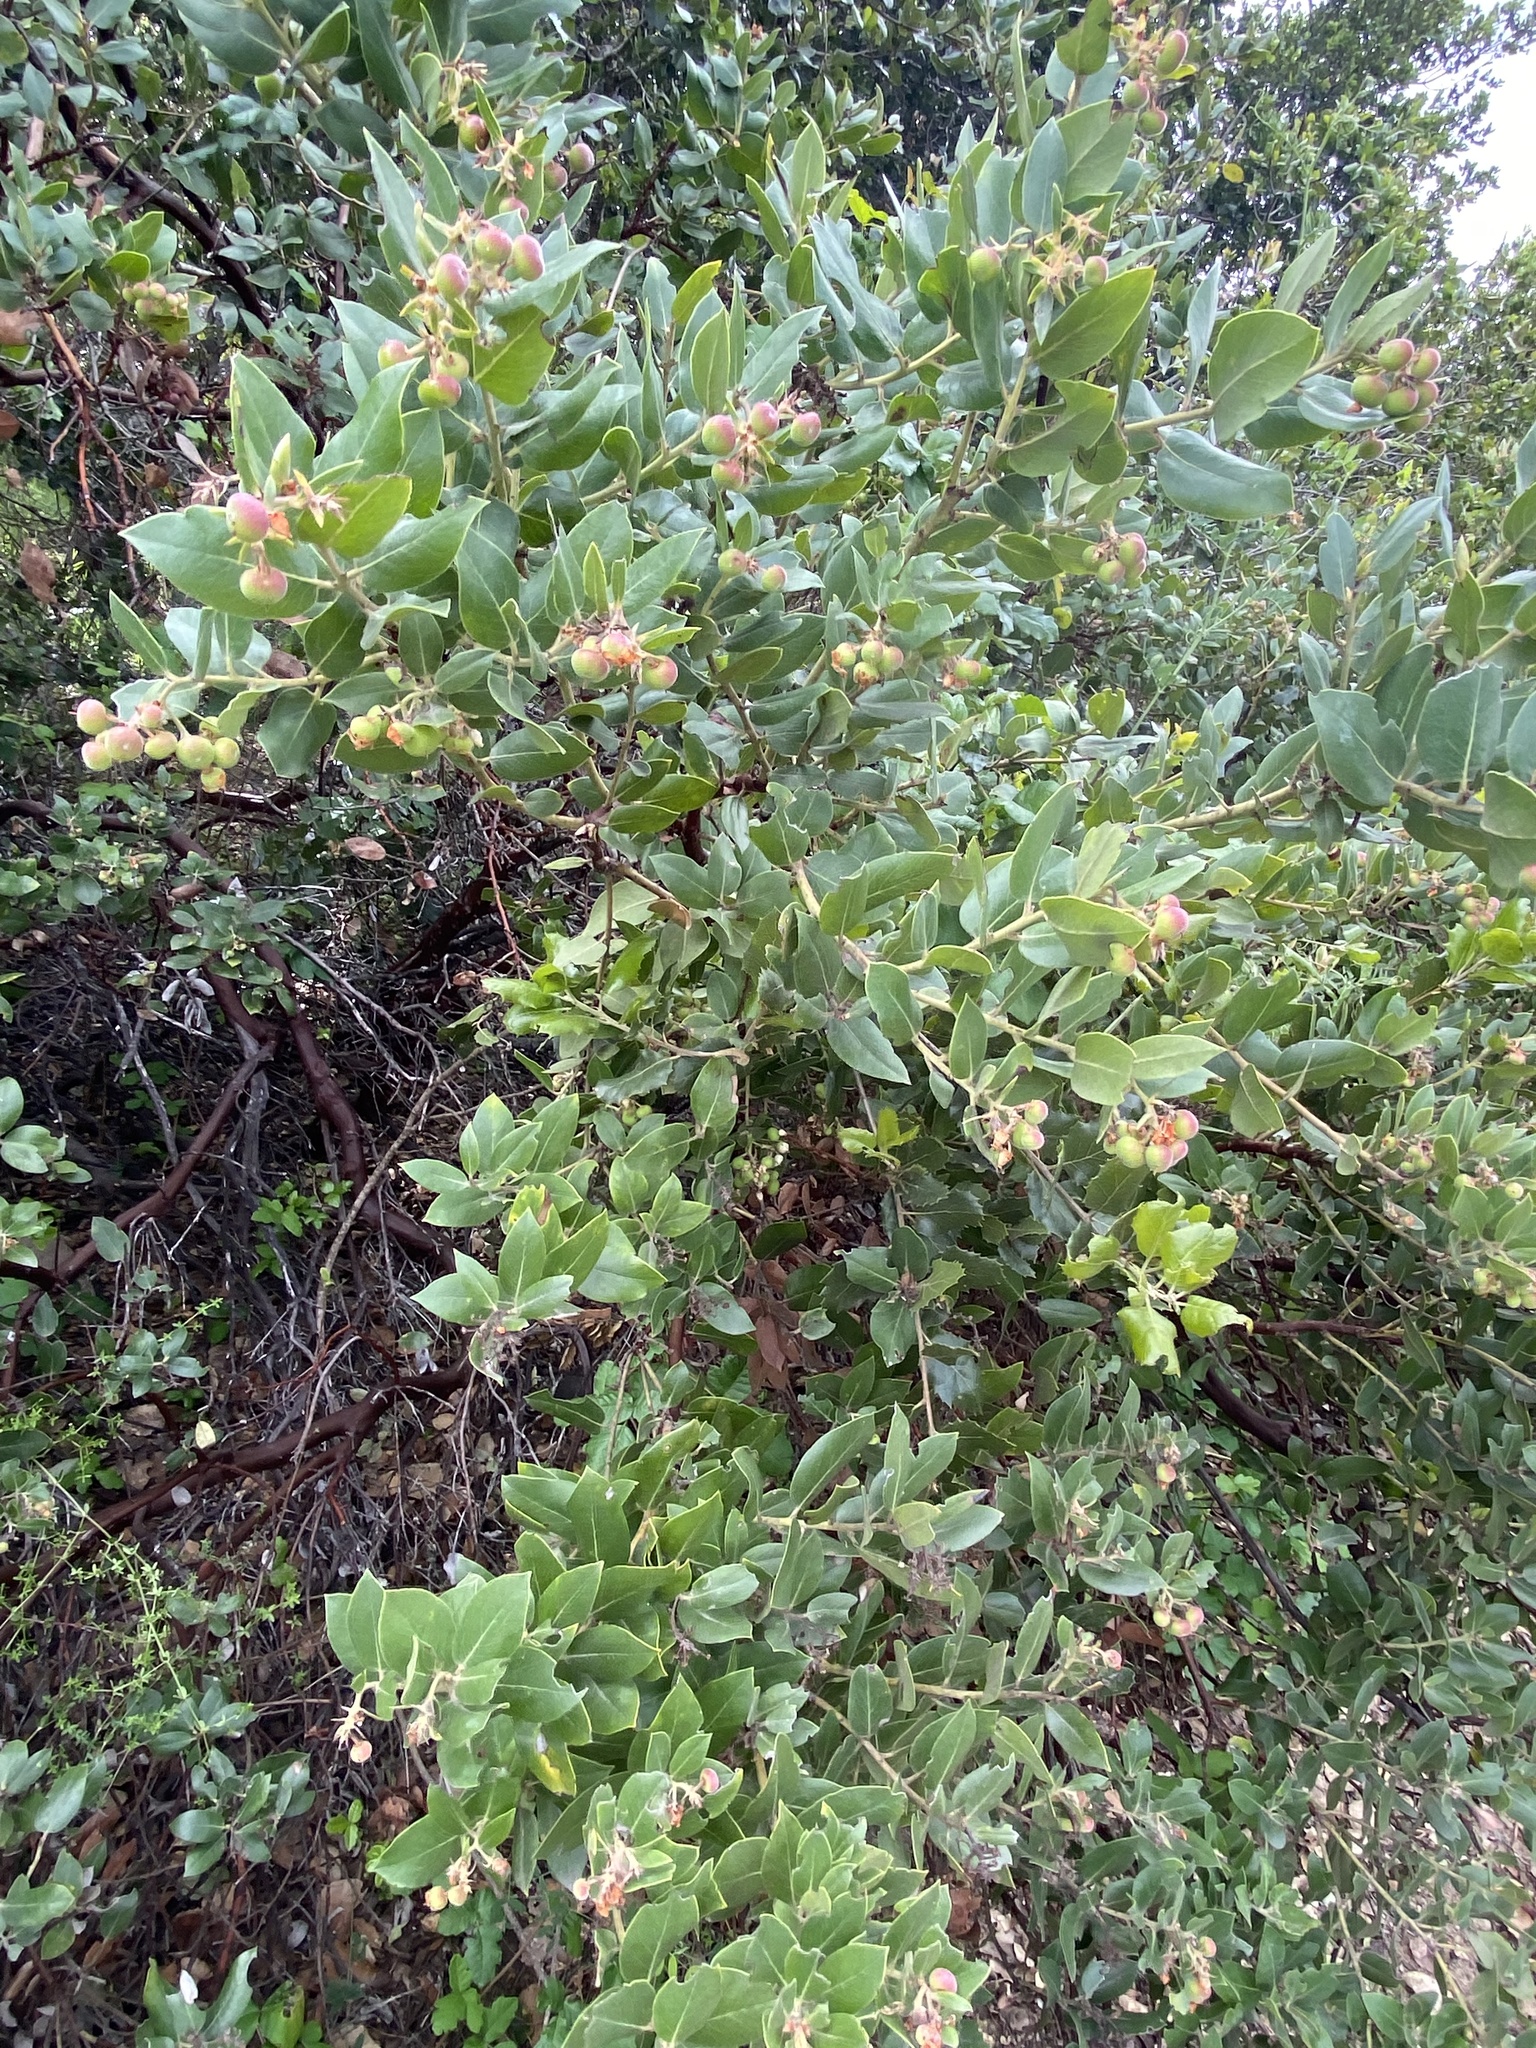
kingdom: Plantae
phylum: Tracheophyta
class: Magnoliopsida
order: Ericales
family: Ericaceae
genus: Arctostaphylos
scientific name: Arctostaphylos crustacea
